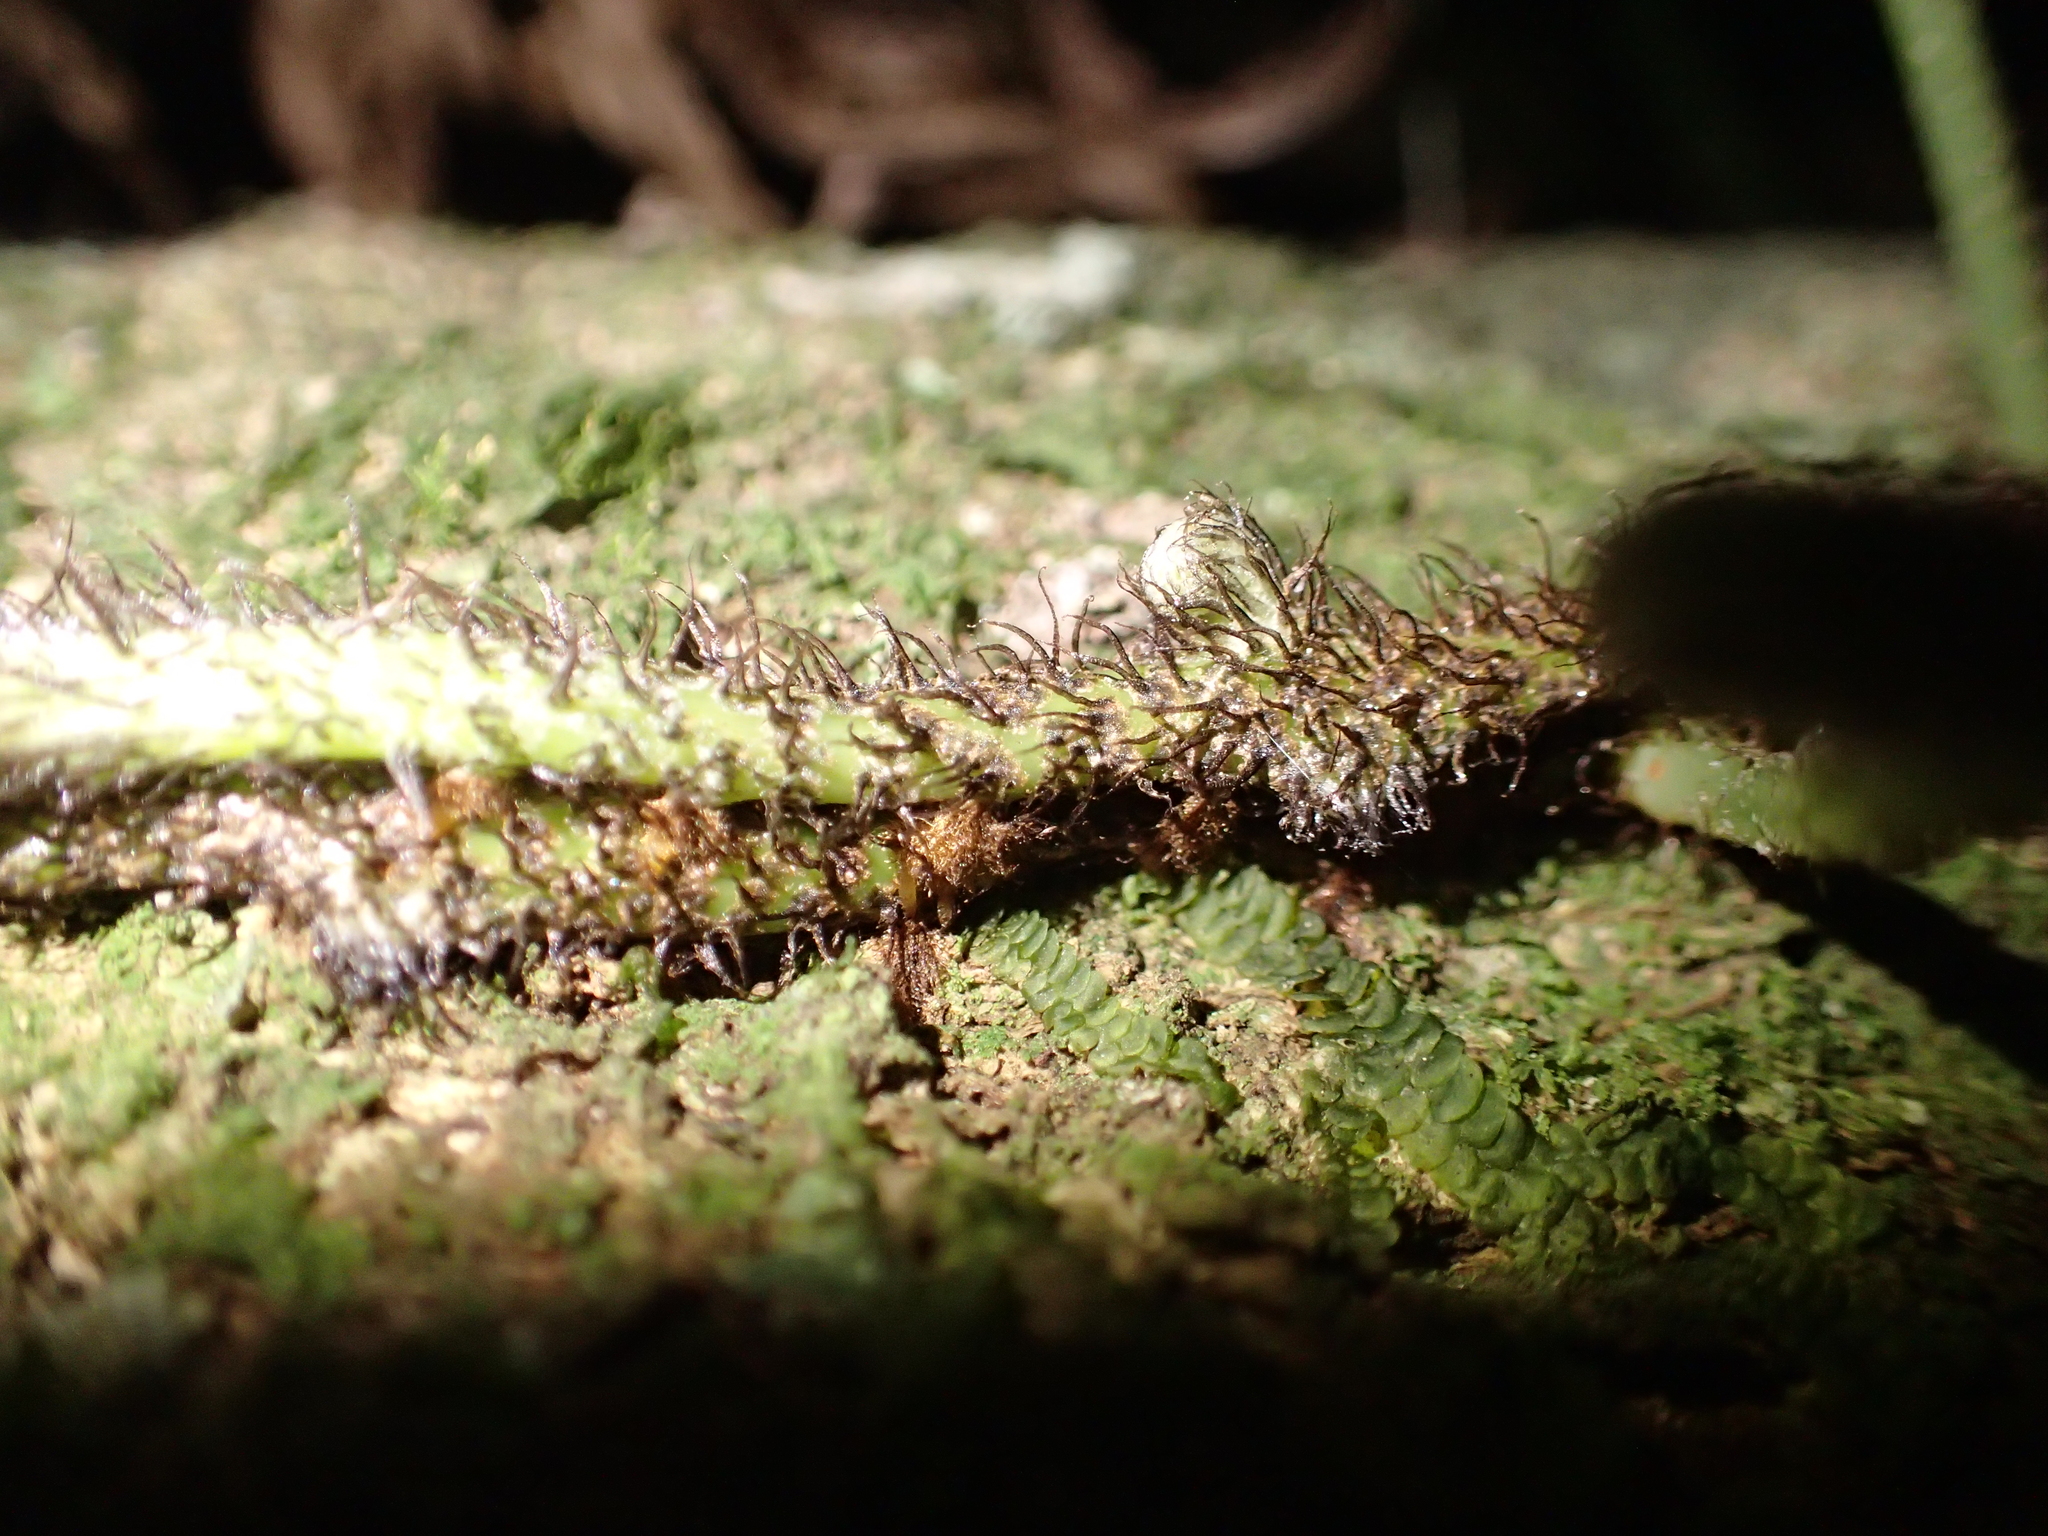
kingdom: Plantae
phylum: Tracheophyta
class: Polypodiopsida
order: Polypodiales
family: Polypodiaceae
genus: Lecanopteris
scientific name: Lecanopteris scandens
